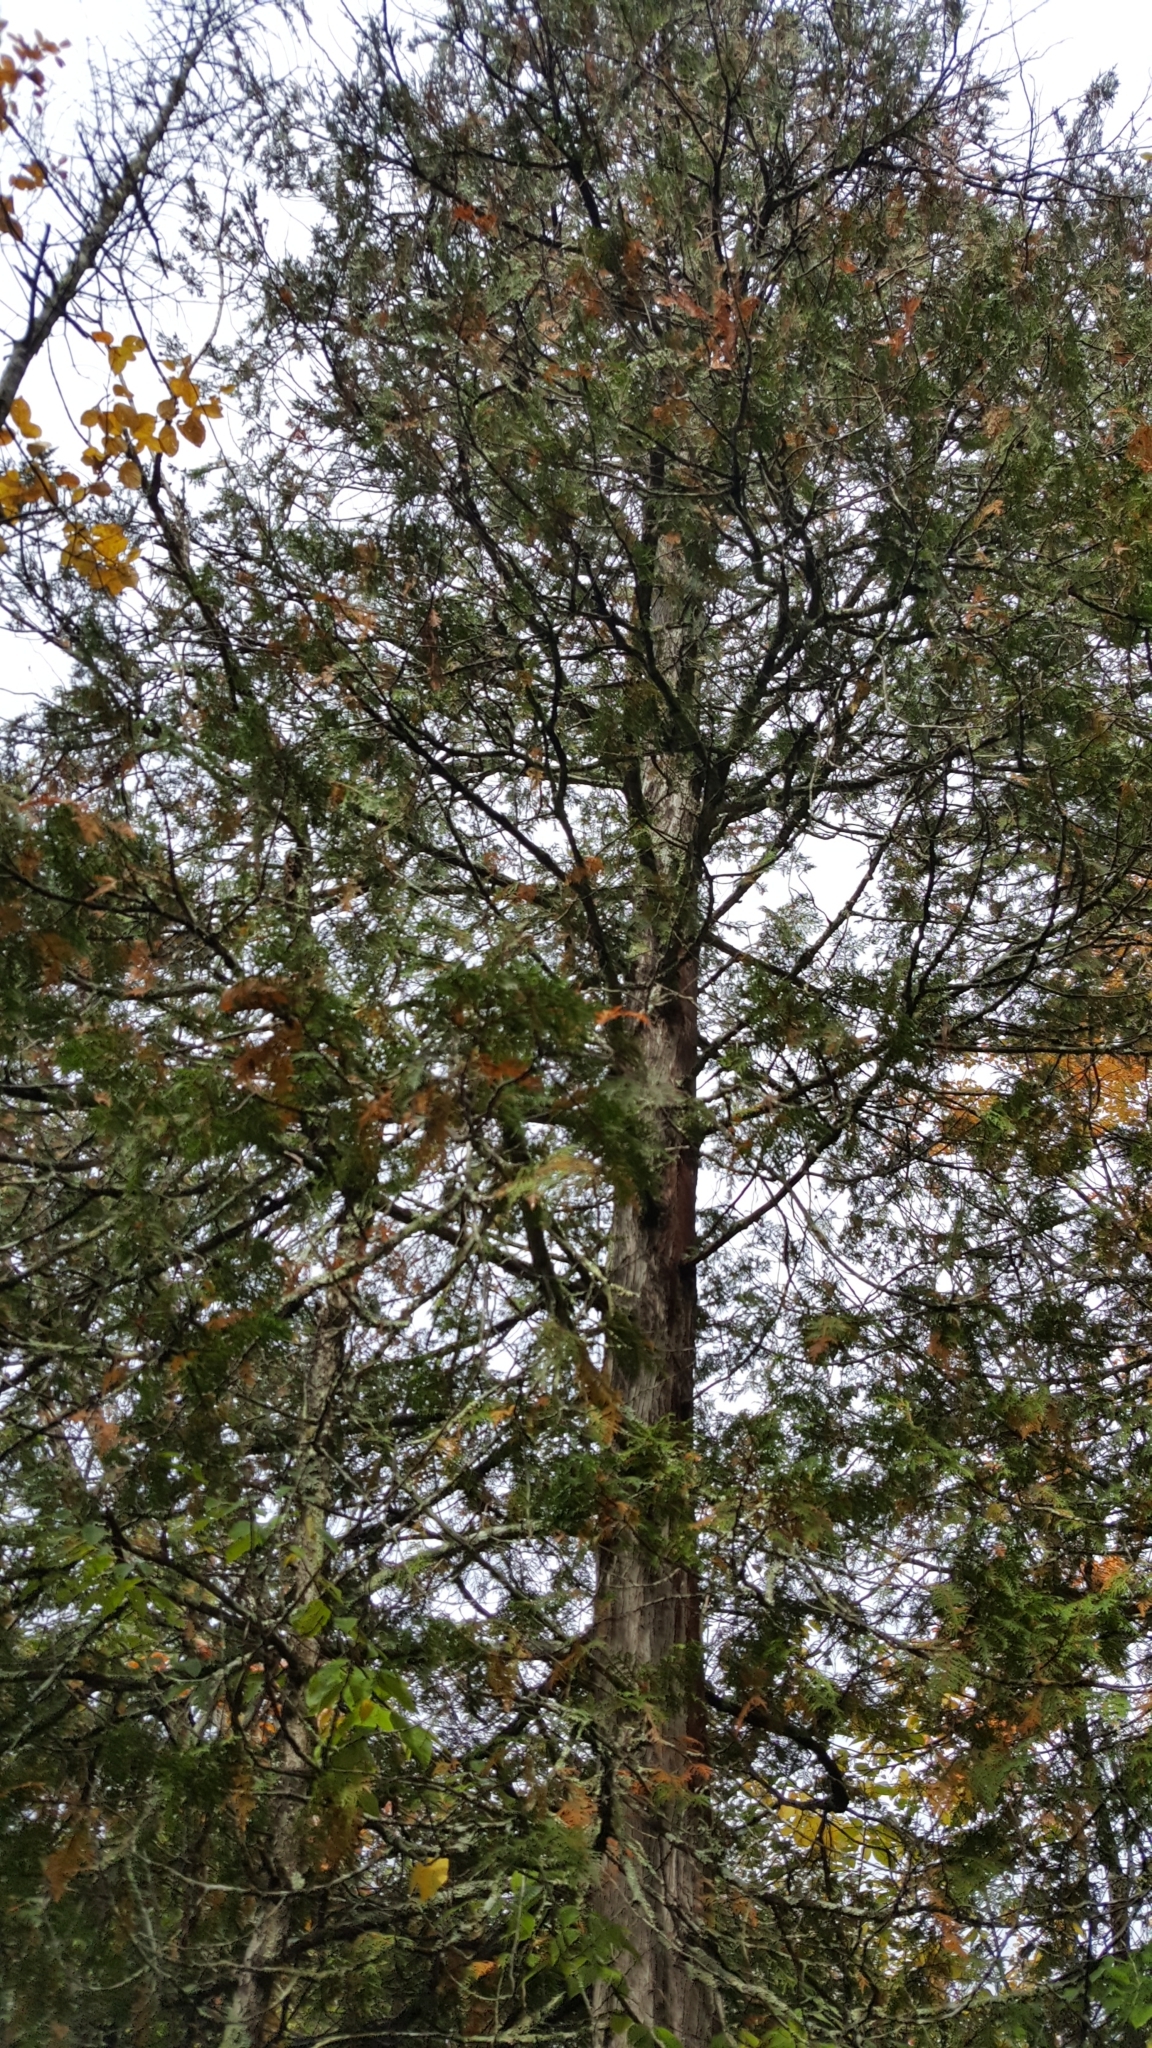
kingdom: Plantae
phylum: Tracheophyta
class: Pinopsida
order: Pinales
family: Cupressaceae
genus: Thuja
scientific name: Thuja occidentalis
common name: Northern white-cedar
